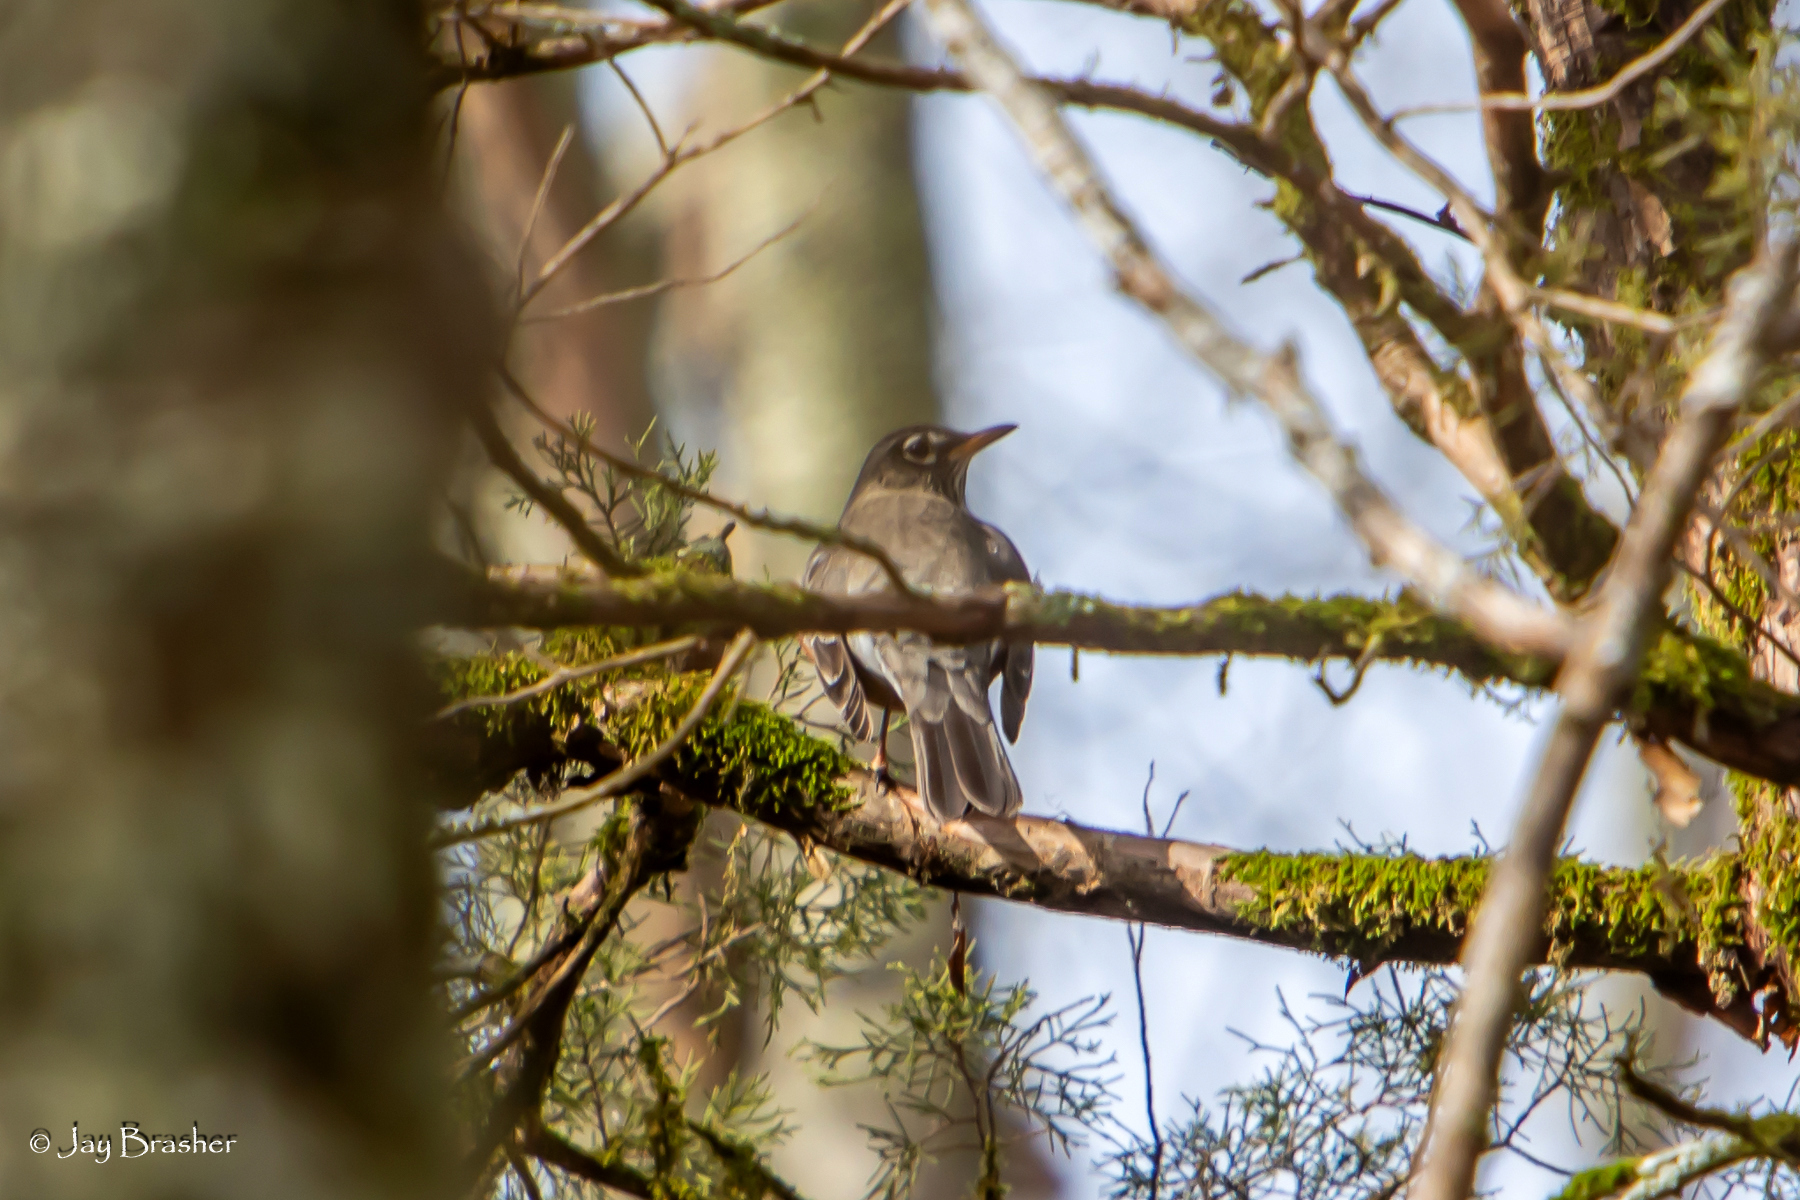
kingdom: Animalia
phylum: Chordata
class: Aves
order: Passeriformes
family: Turdidae
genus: Turdus
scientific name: Turdus migratorius
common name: American robin
